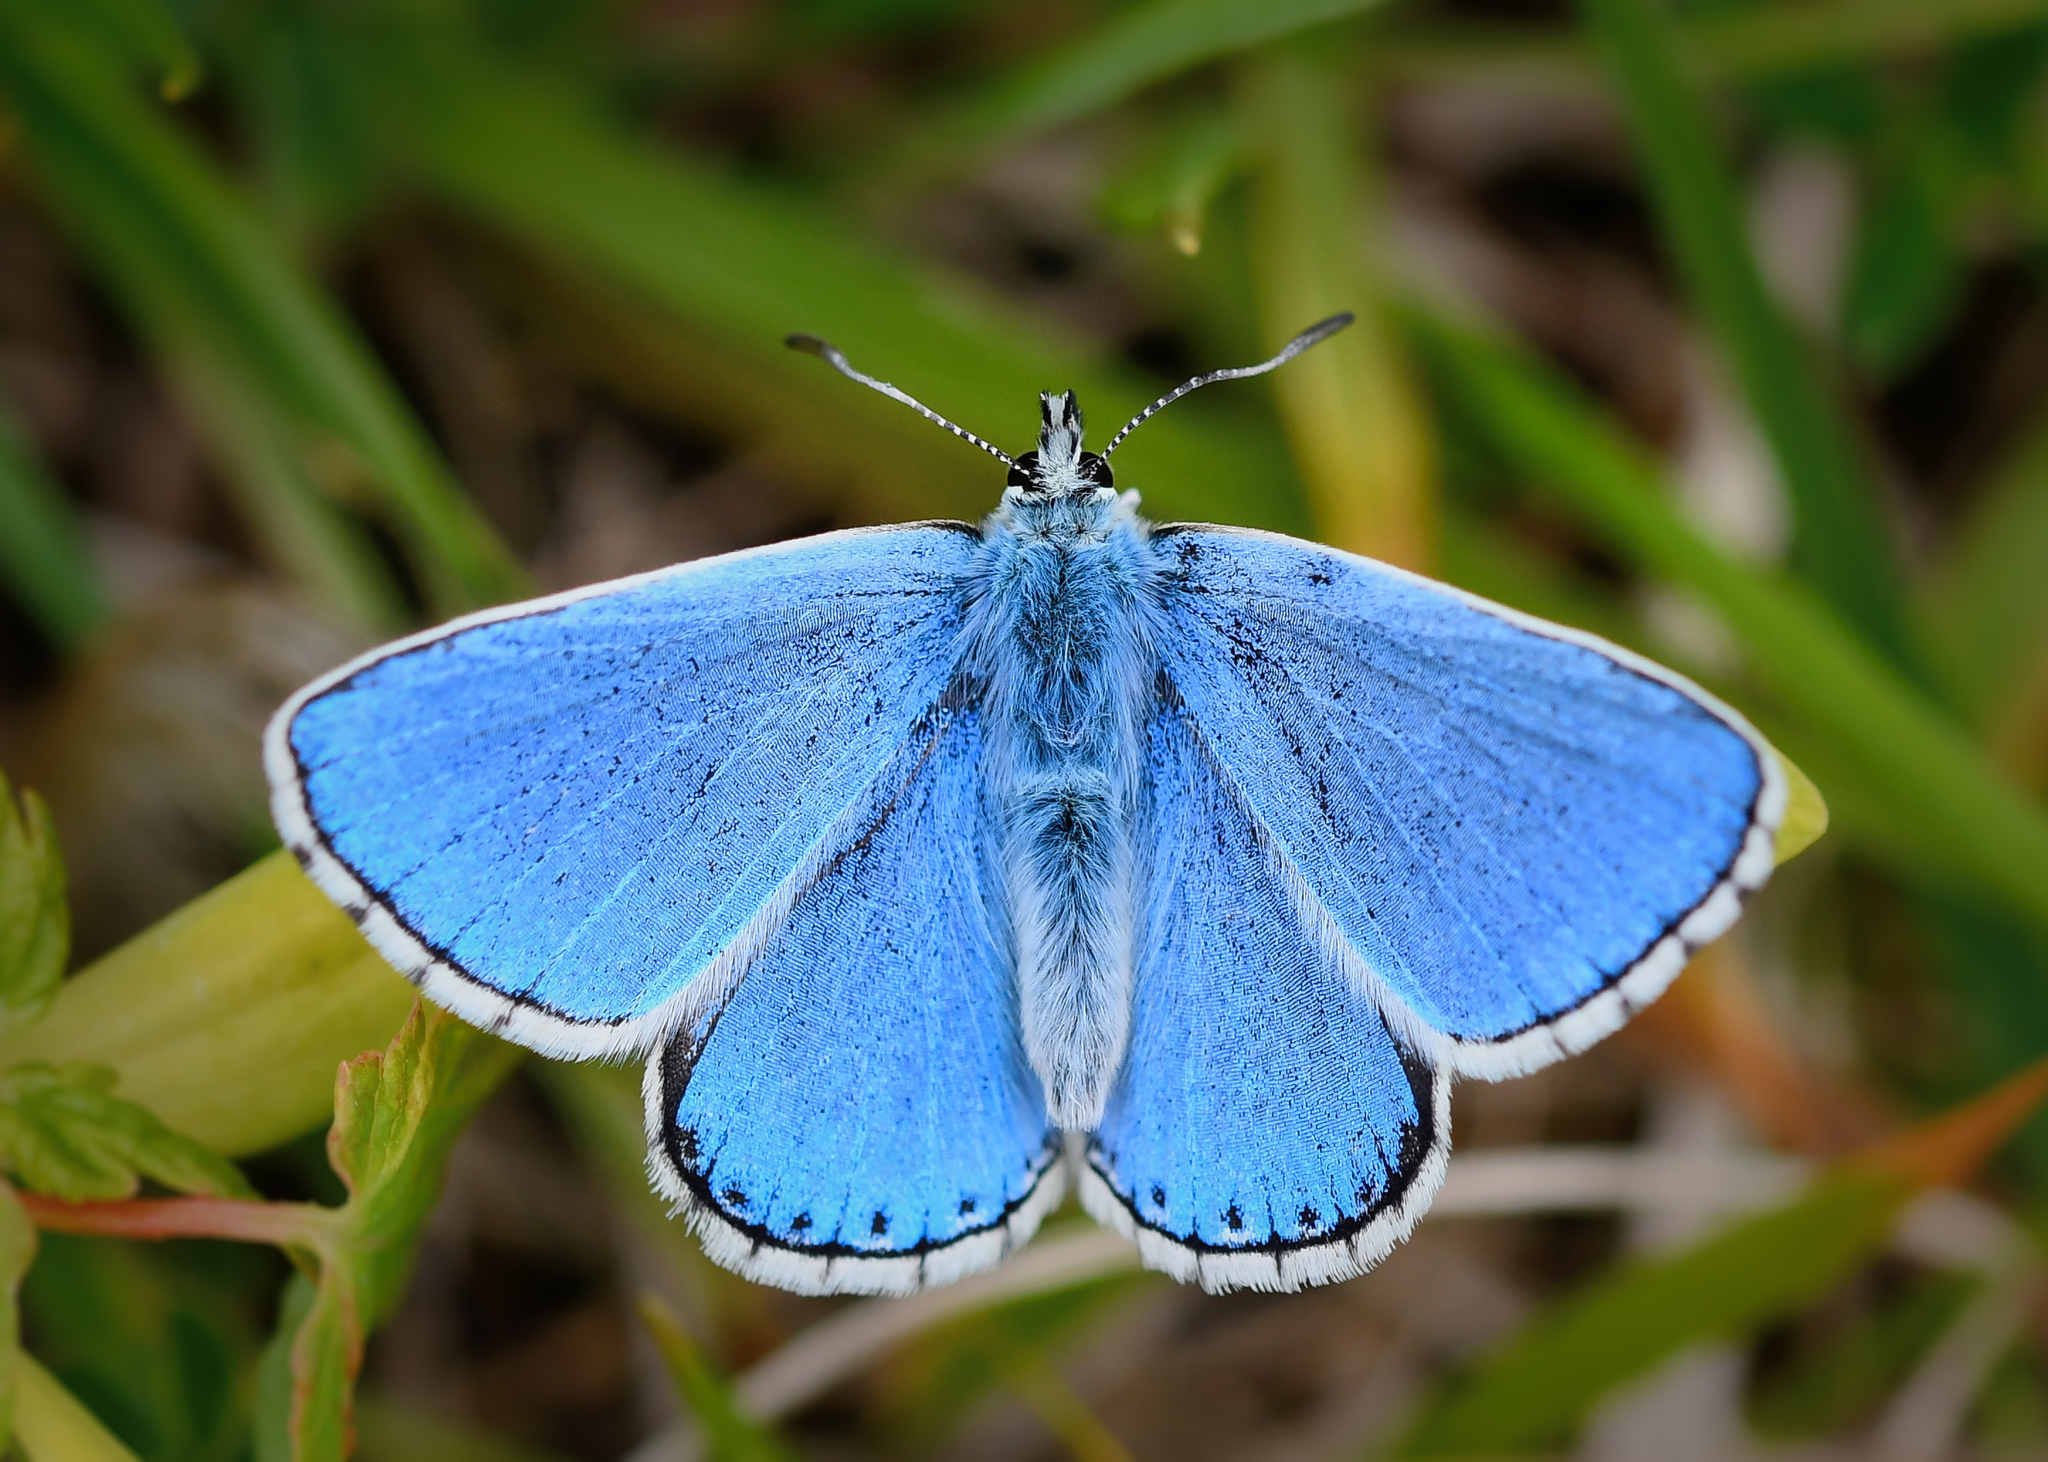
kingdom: Animalia
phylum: Arthropoda
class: Insecta
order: Lepidoptera
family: Lycaenidae
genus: Lysandra
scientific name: Lysandra bellargus
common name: Adonis blue
